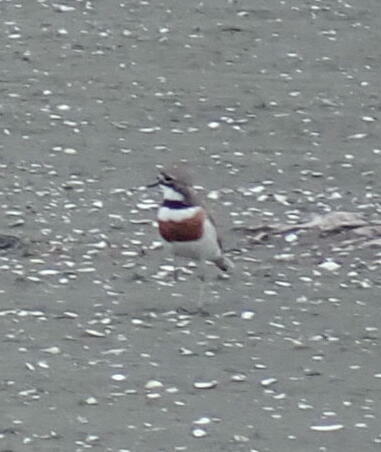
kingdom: Animalia
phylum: Chordata
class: Aves
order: Charadriiformes
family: Charadriidae
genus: Anarhynchus
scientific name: Anarhynchus
